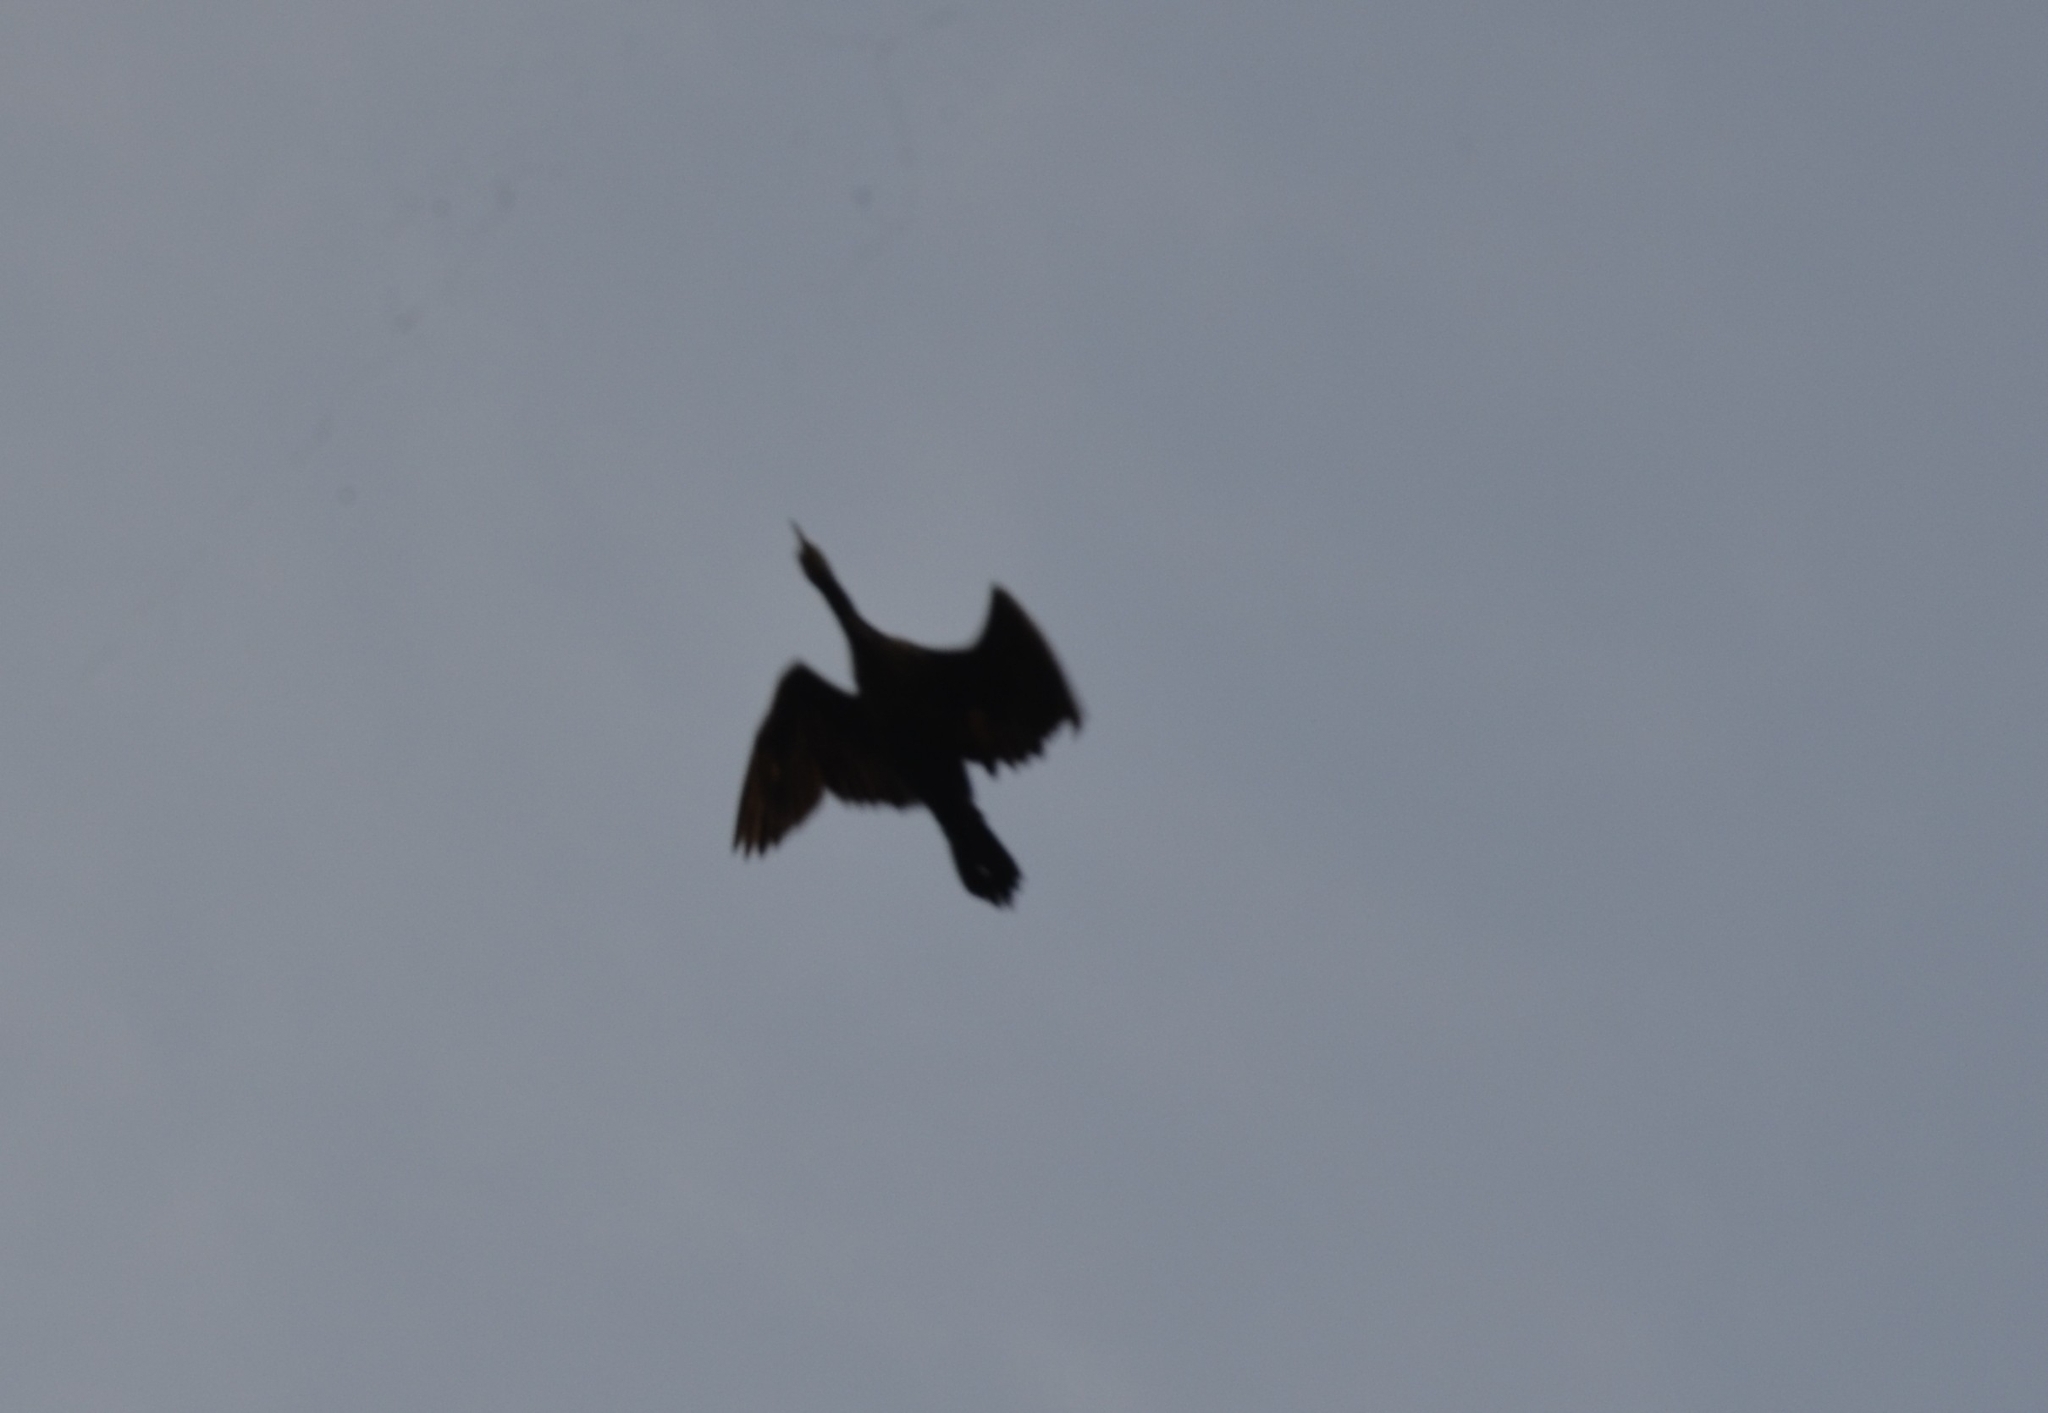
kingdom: Animalia
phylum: Chordata
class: Aves
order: Suliformes
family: Phalacrocoracidae
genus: Microcarbo
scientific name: Microcarbo niger
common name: Little cormorant
